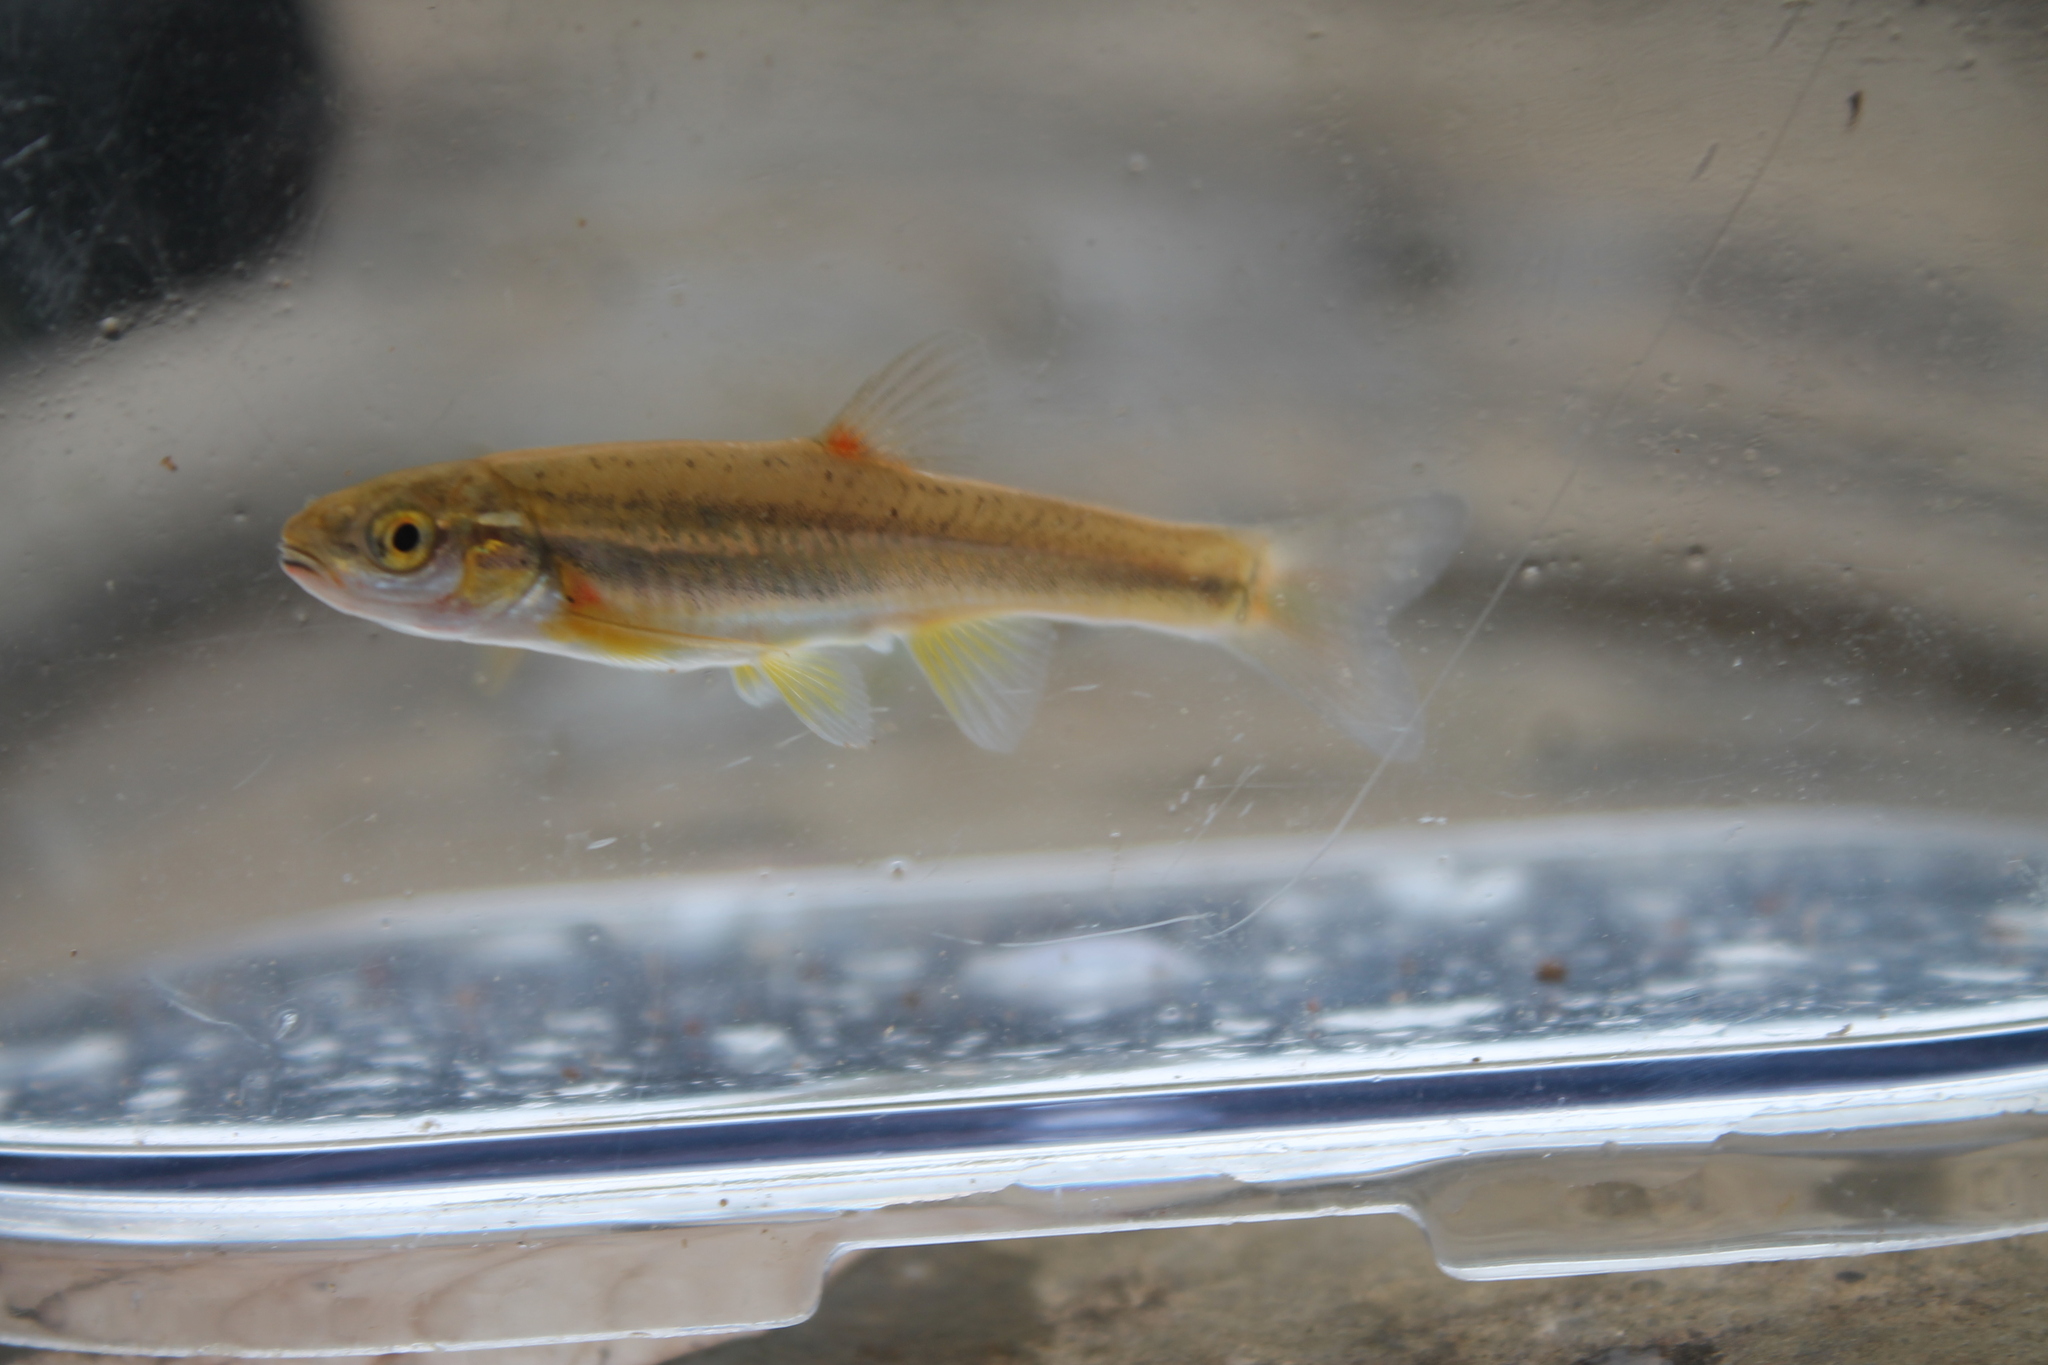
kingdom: Animalia
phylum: Chordata
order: Cypriniformes
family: Cyprinidae
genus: Chrosomus
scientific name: Chrosomus erythrogaster
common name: Southern redbelly dace
